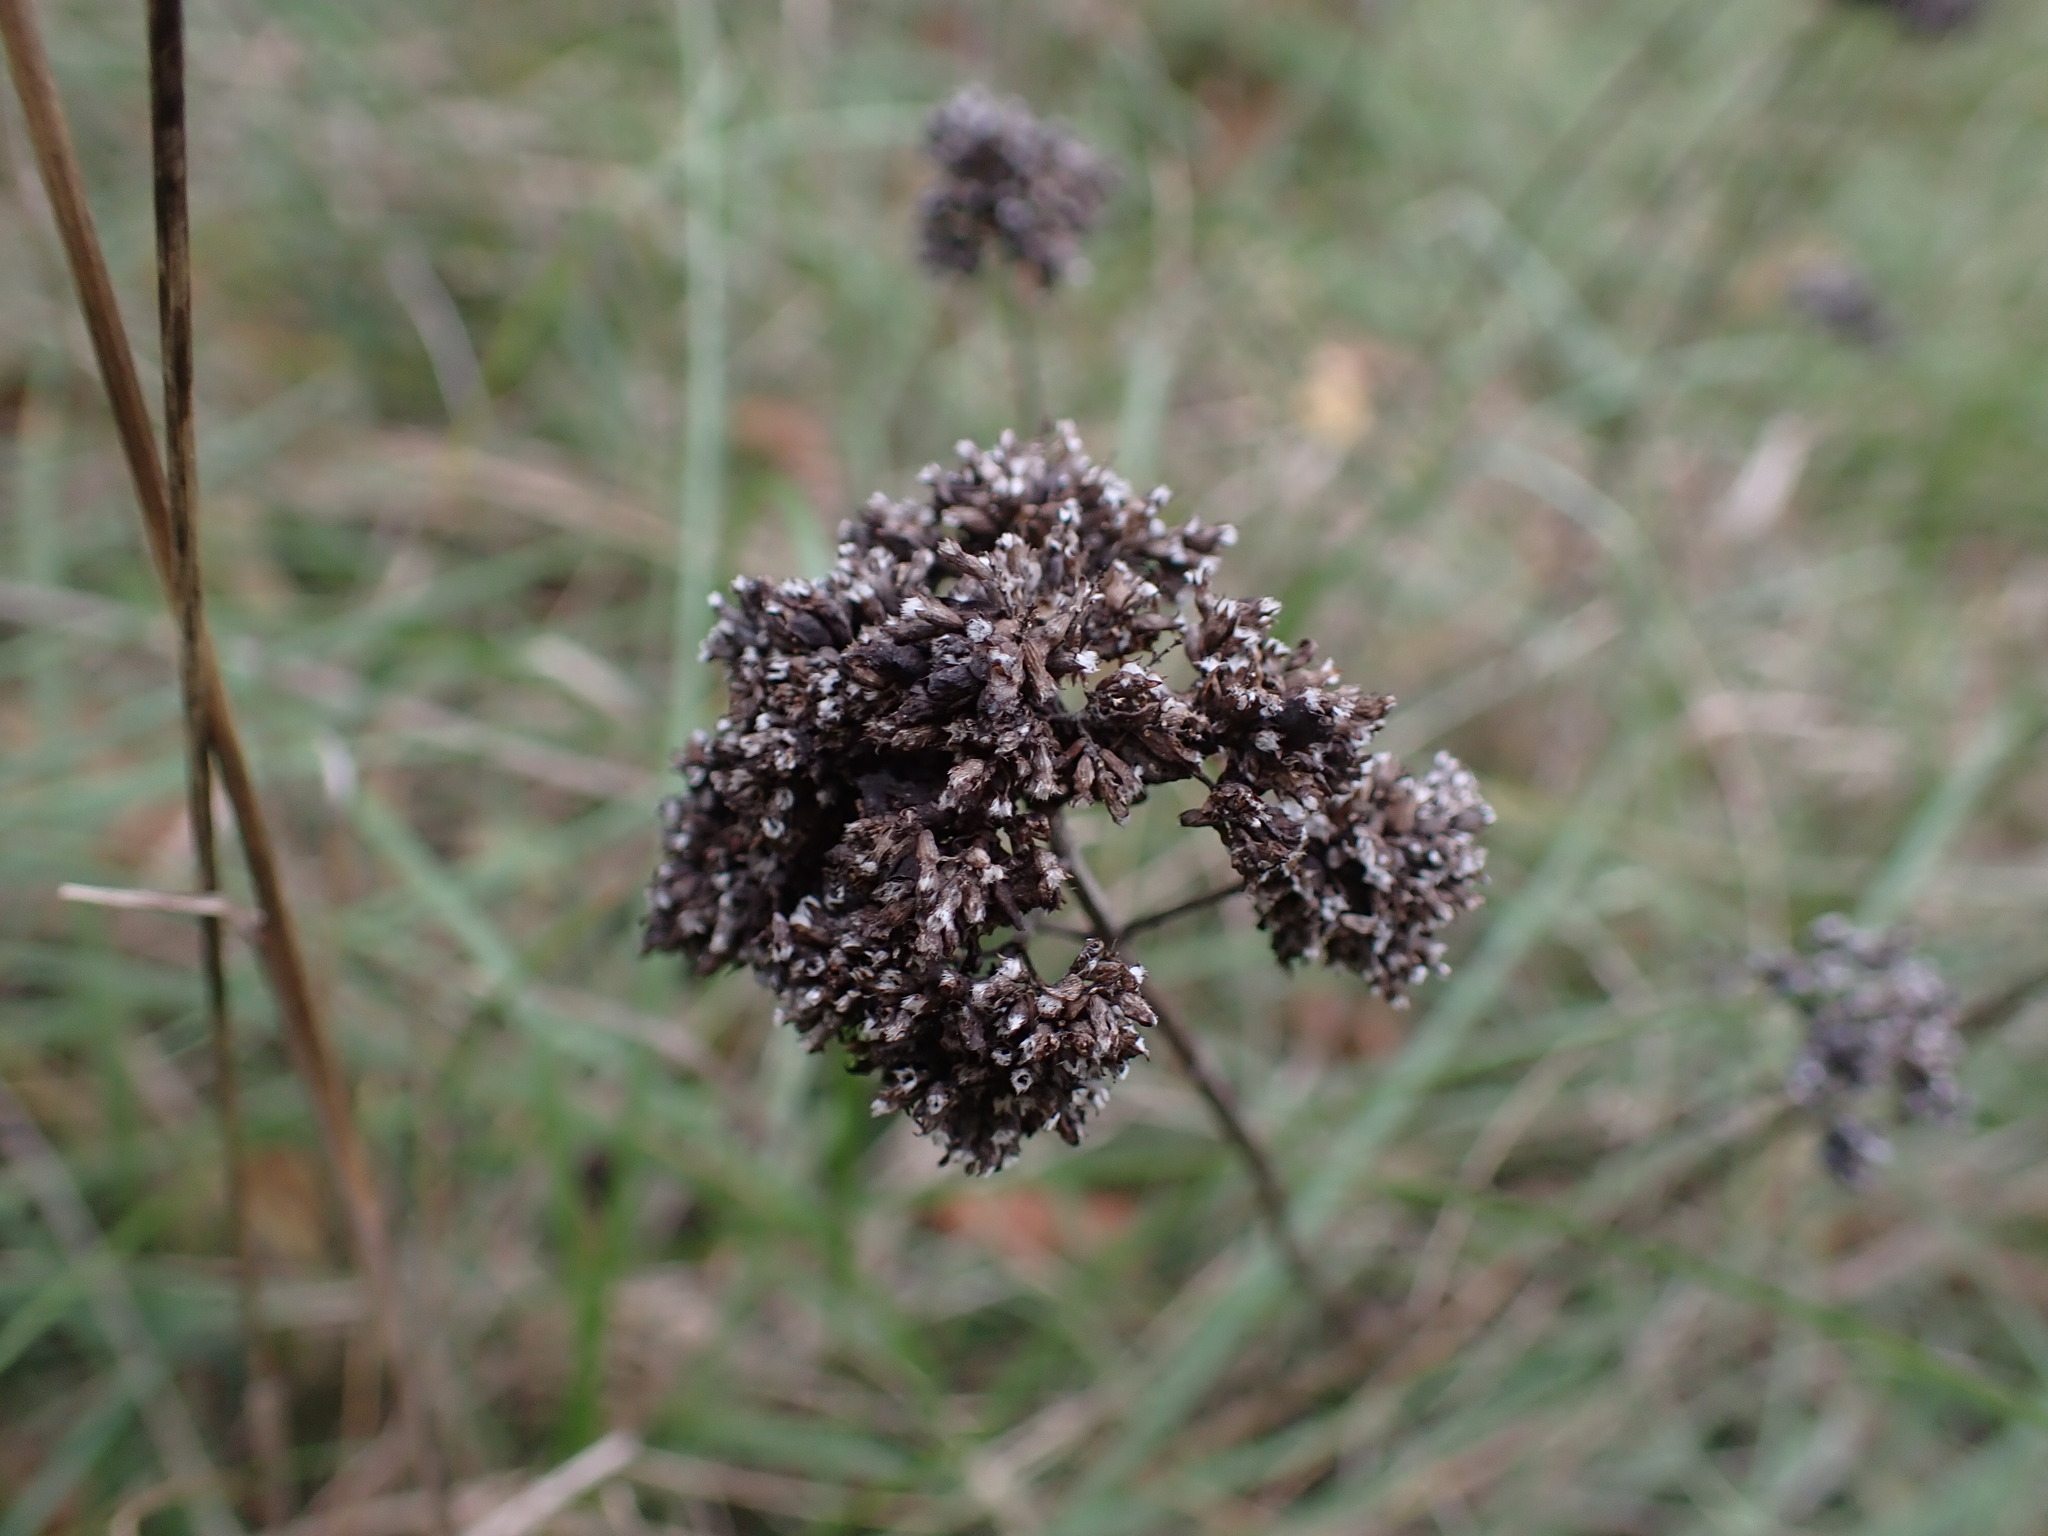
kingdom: Plantae
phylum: Tracheophyta
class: Magnoliopsida
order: Lamiales
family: Lamiaceae
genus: Origanum
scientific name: Origanum vulgare
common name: Wild marjoram
